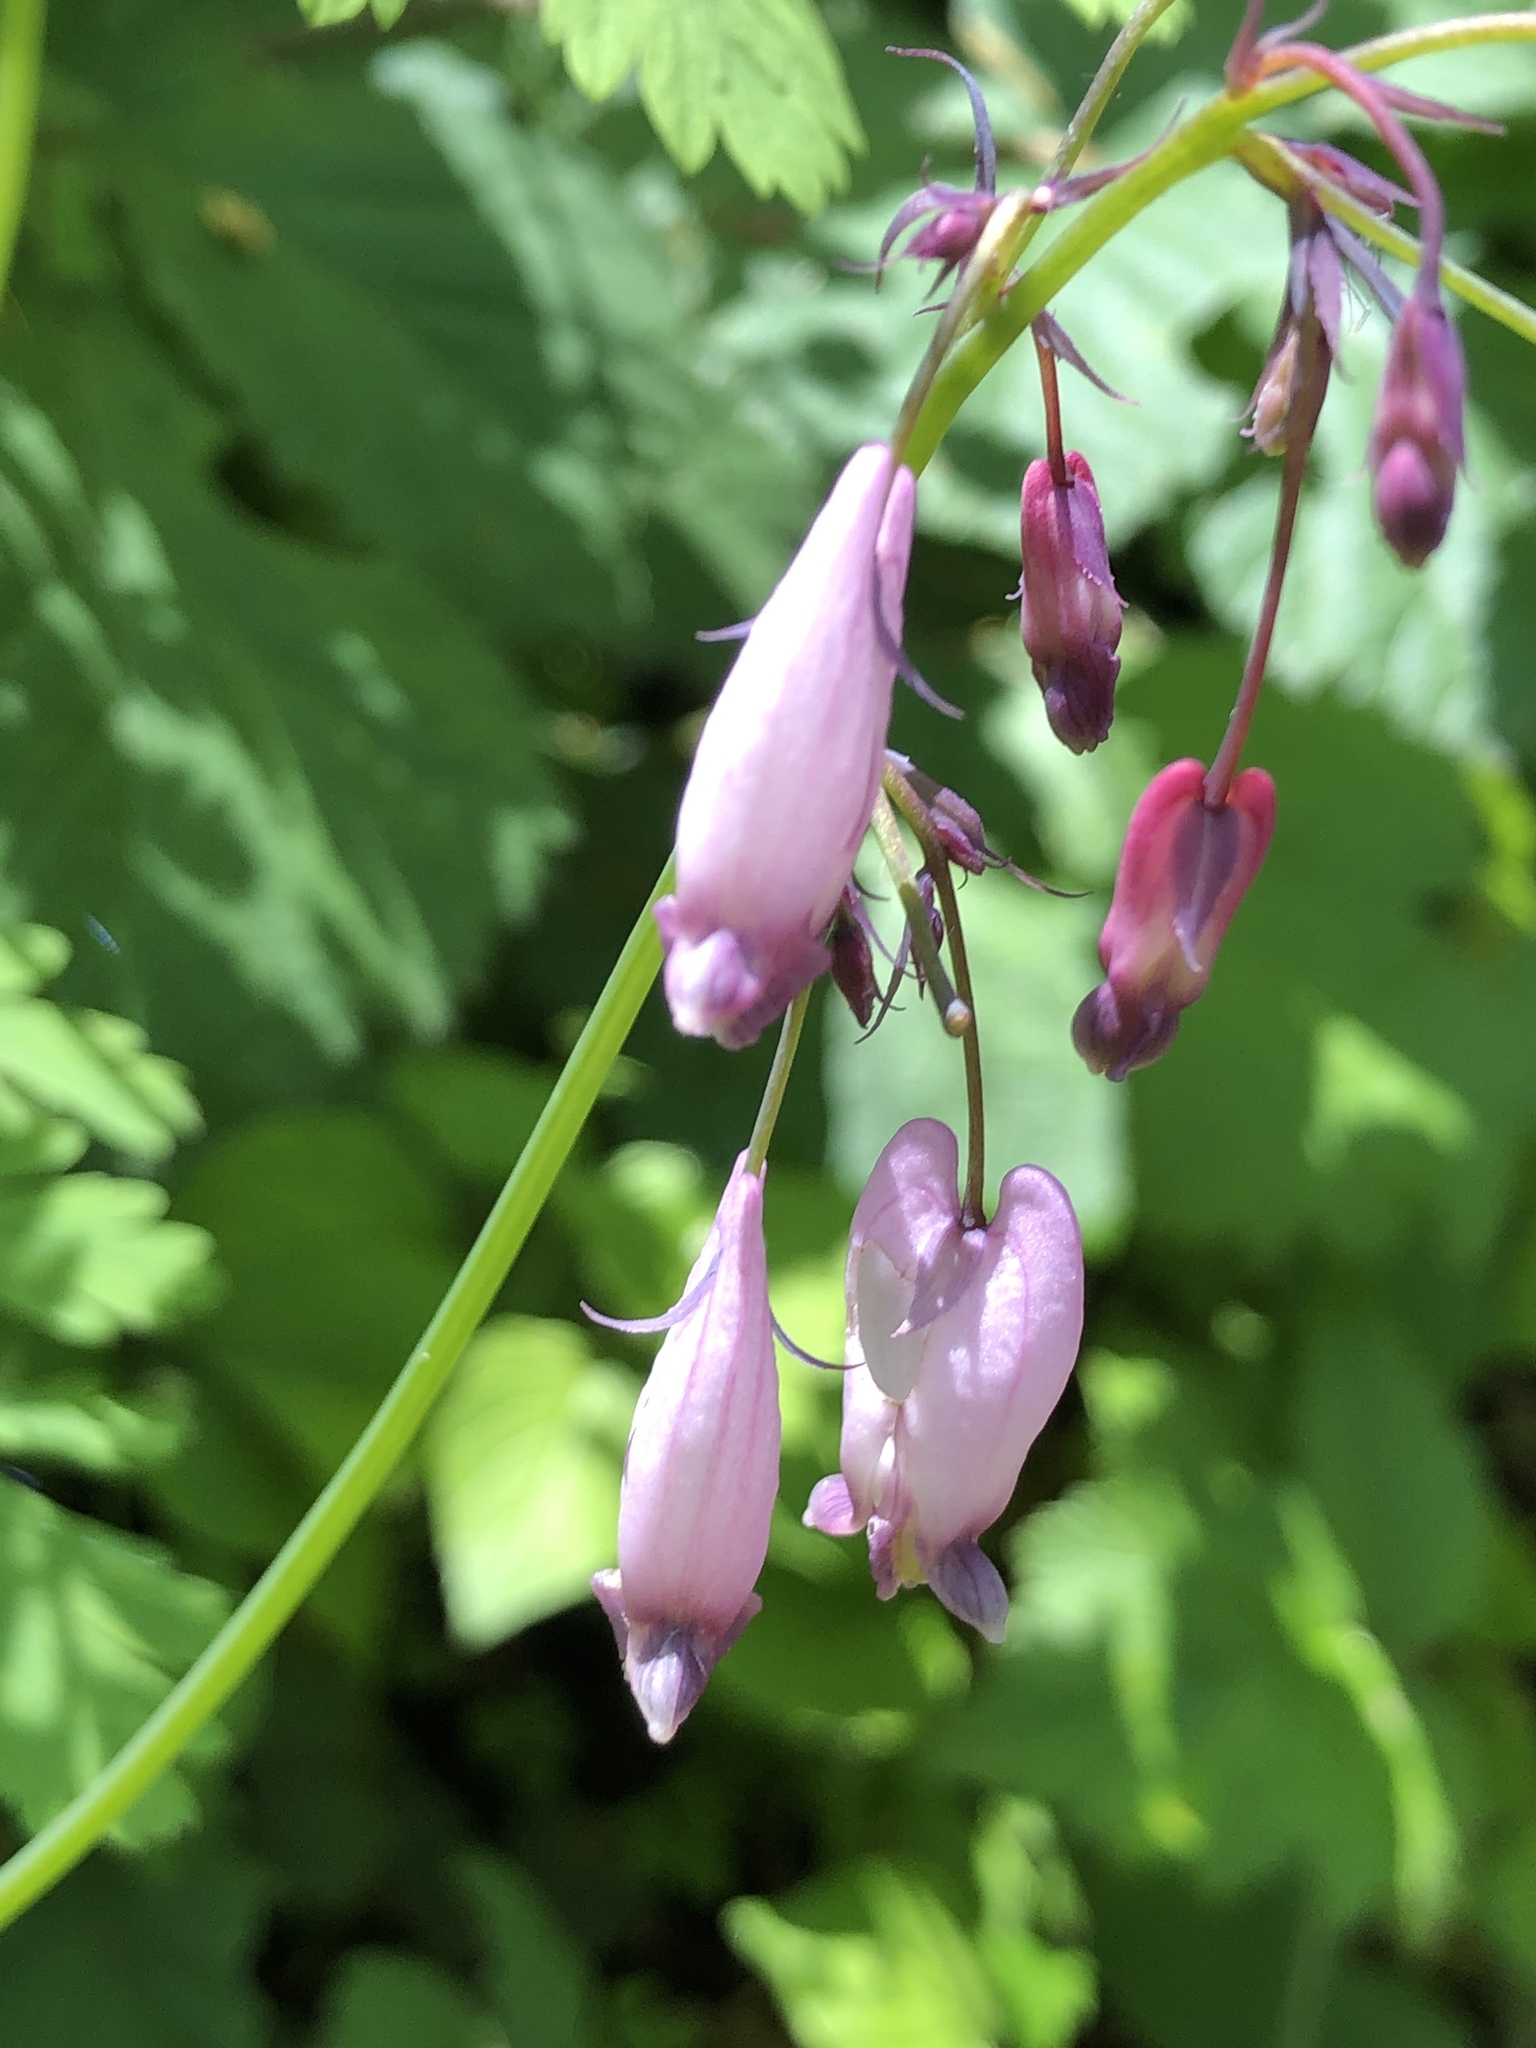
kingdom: Plantae
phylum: Tracheophyta
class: Magnoliopsida
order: Ranunculales
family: Papaveraceae
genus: Dicentra
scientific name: Dicentra formosa
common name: Bleeding-heart
